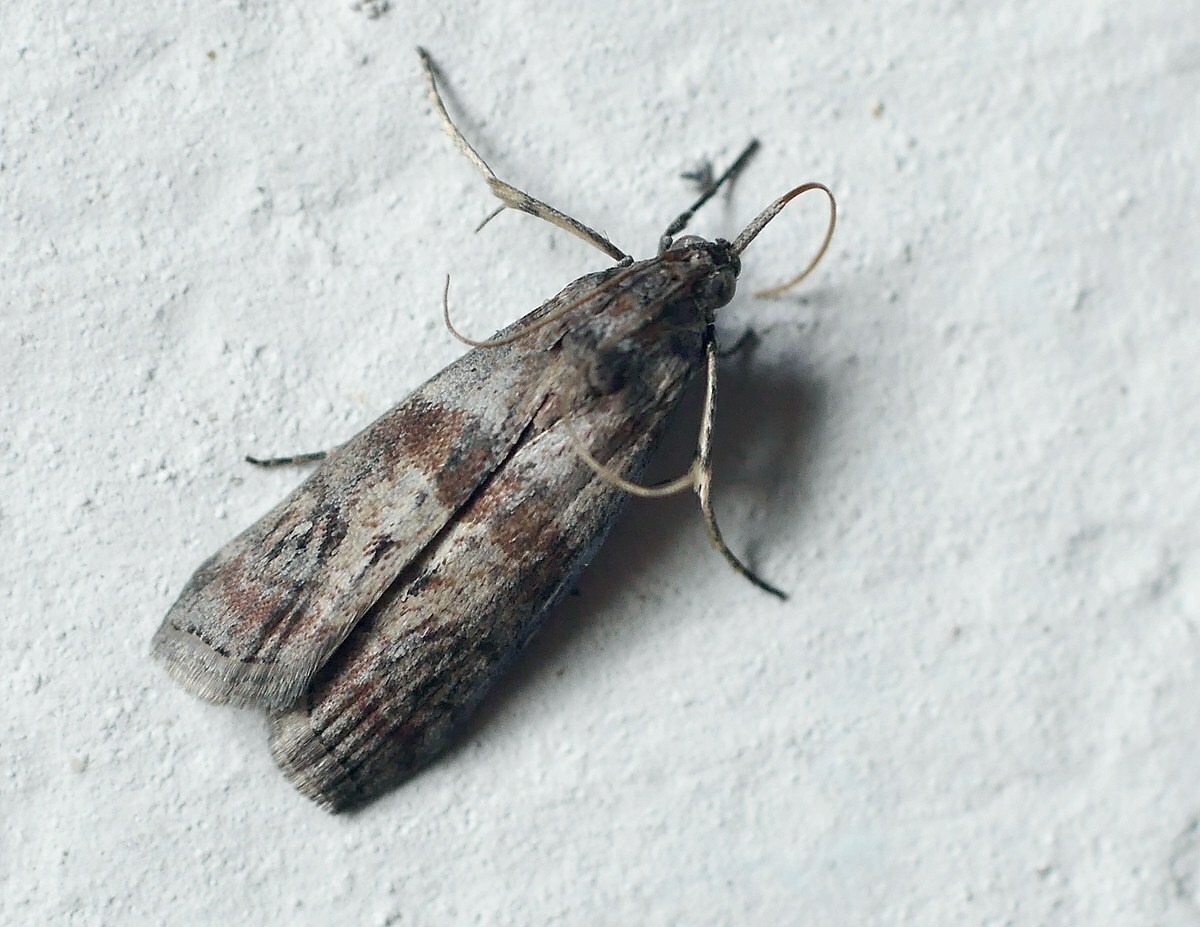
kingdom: Animalia
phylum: Arthropoda
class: Insecta
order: Lepidoptera
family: Pyralidae
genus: Phycita
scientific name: Phycita roborella
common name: Dotted oak knot-horn
